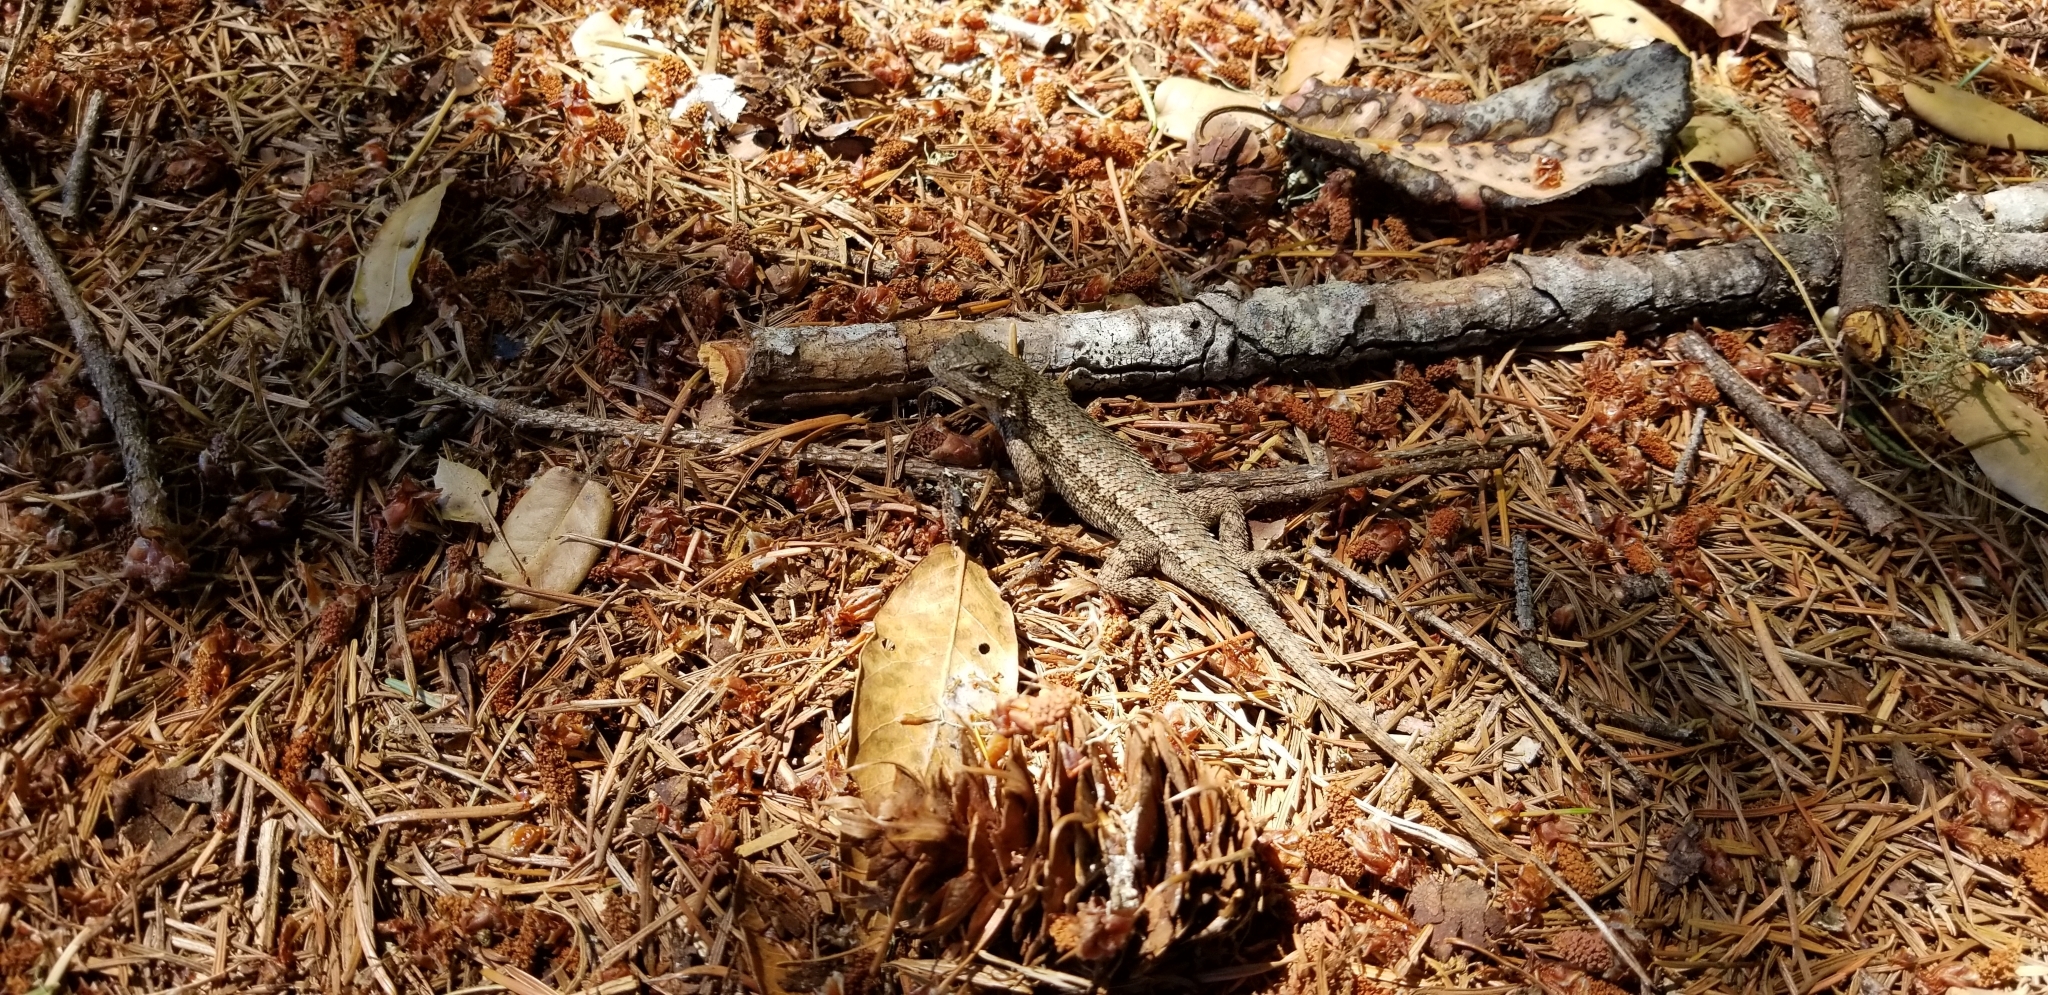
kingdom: Animalia
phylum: Chordata
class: Squamata
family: Phrynosomatidae
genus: Sceloporus
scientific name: Sceloporus occidentalis
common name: Western fence lizard
